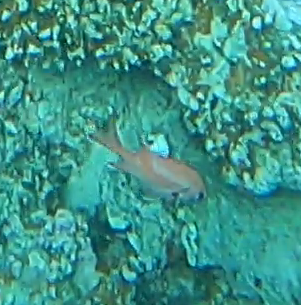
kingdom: Animalia
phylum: Chordata
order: Beryciformes
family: Holocentridae
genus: Myripristis
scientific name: Myripristis murdjan
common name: Big-eye soldierfish
